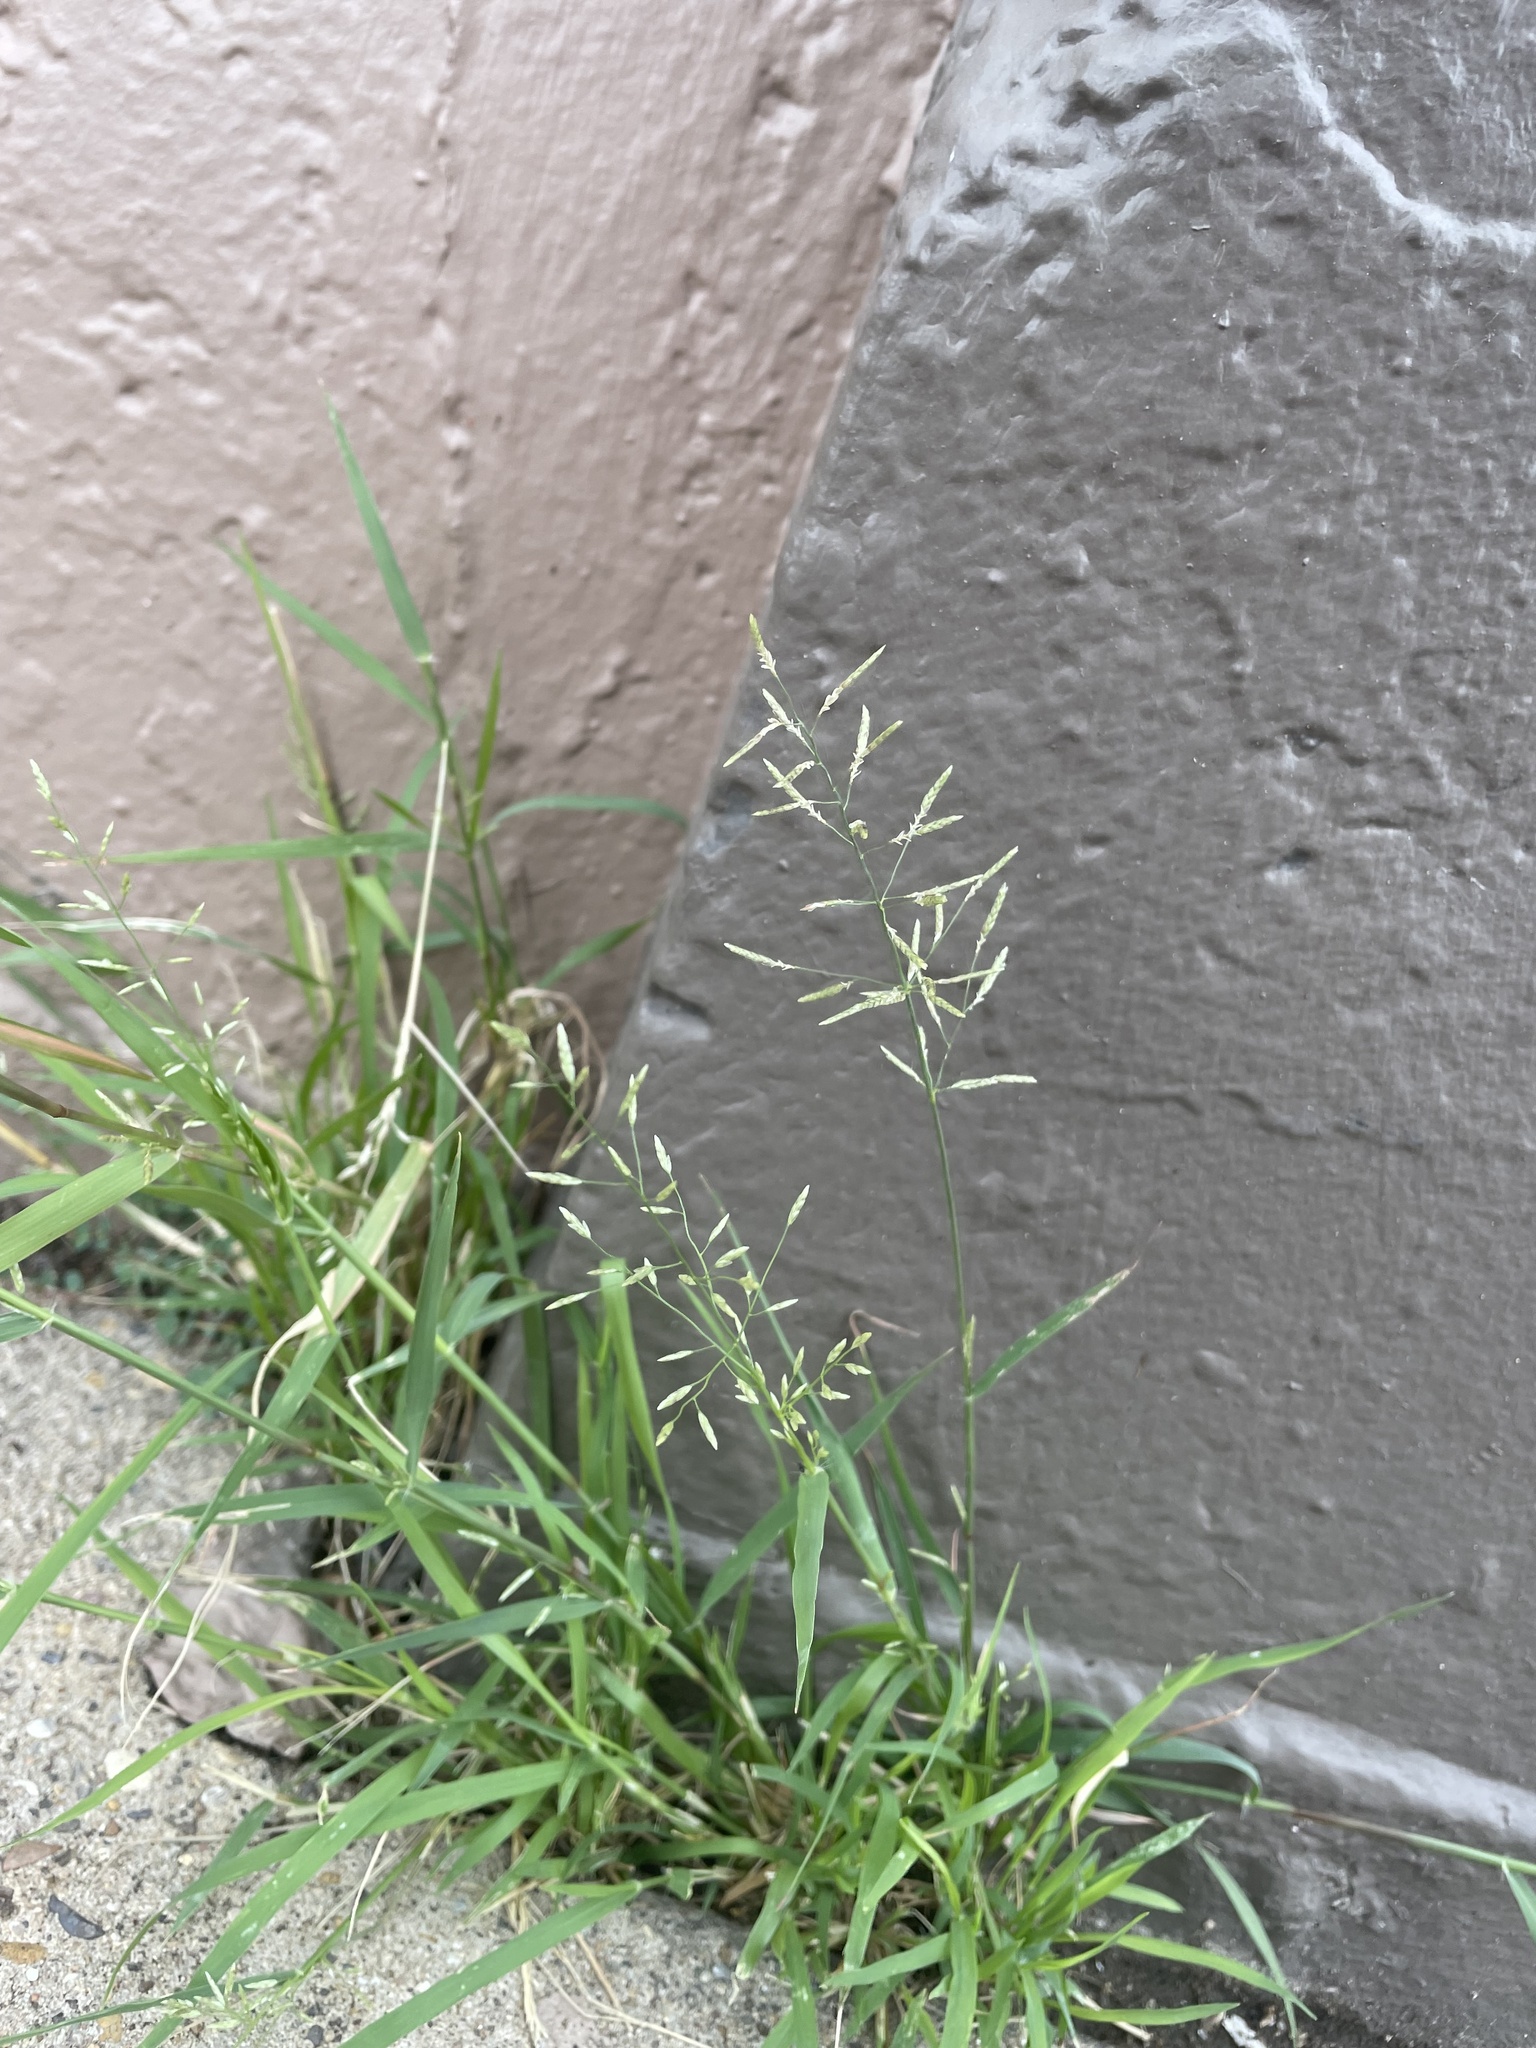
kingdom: Plantae
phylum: Tracheophyta
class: Liliopsida
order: Poales
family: Poaceae
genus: Eragrostis
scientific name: Eragrostis barrelieri
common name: Mediterranean lovegrass
